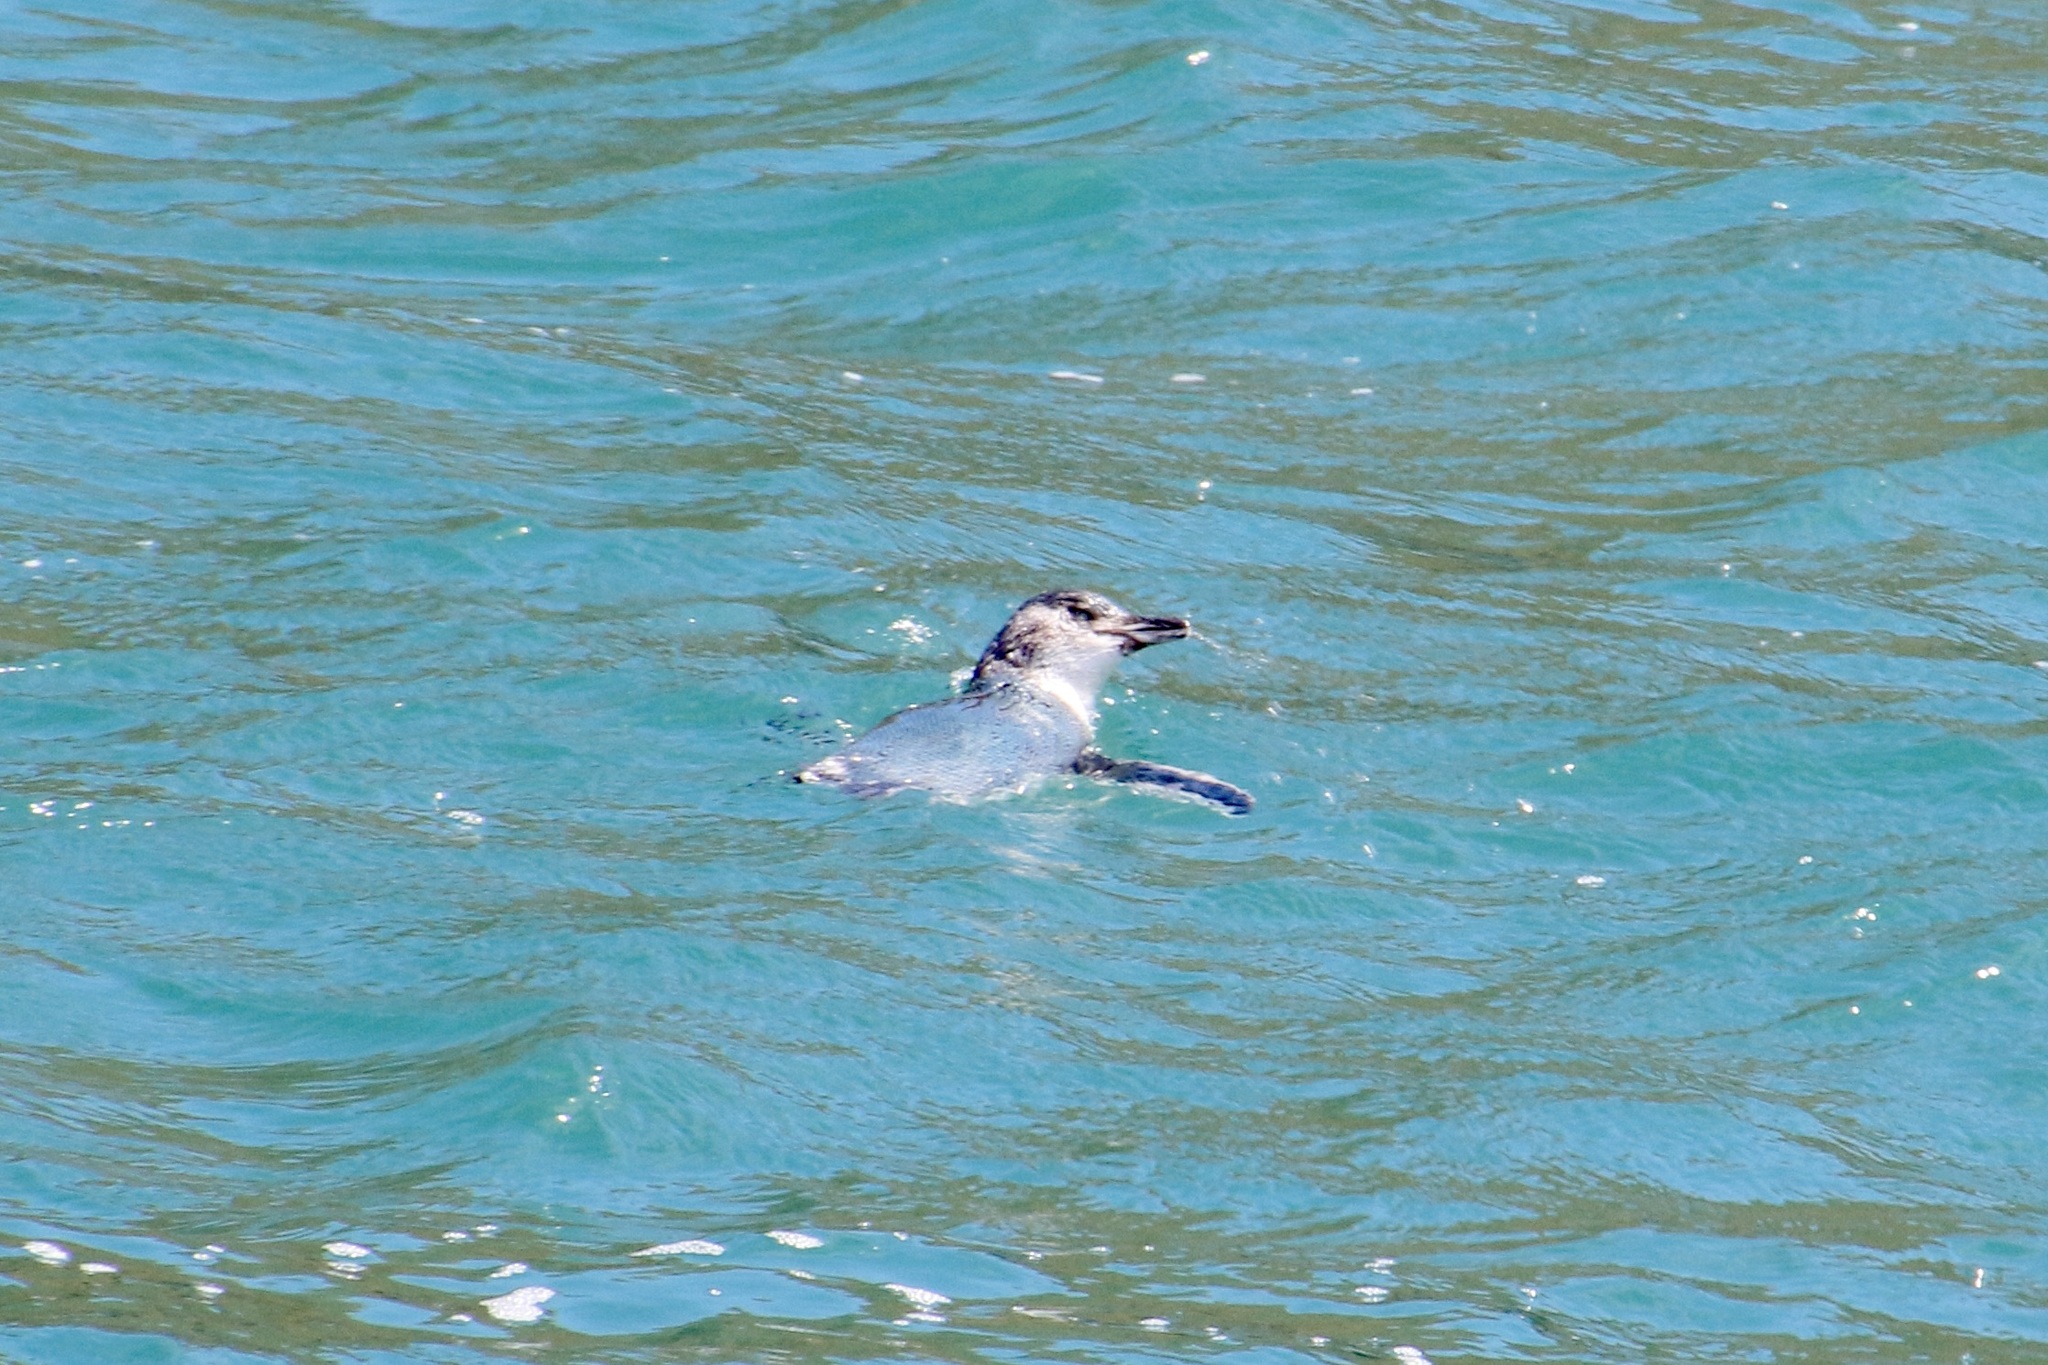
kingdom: Animalia
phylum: Chordata
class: Aves
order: Sphenisciformes
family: Spheniscidae
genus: Eudyptula
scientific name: Eudyptula minor
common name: Little penguin
